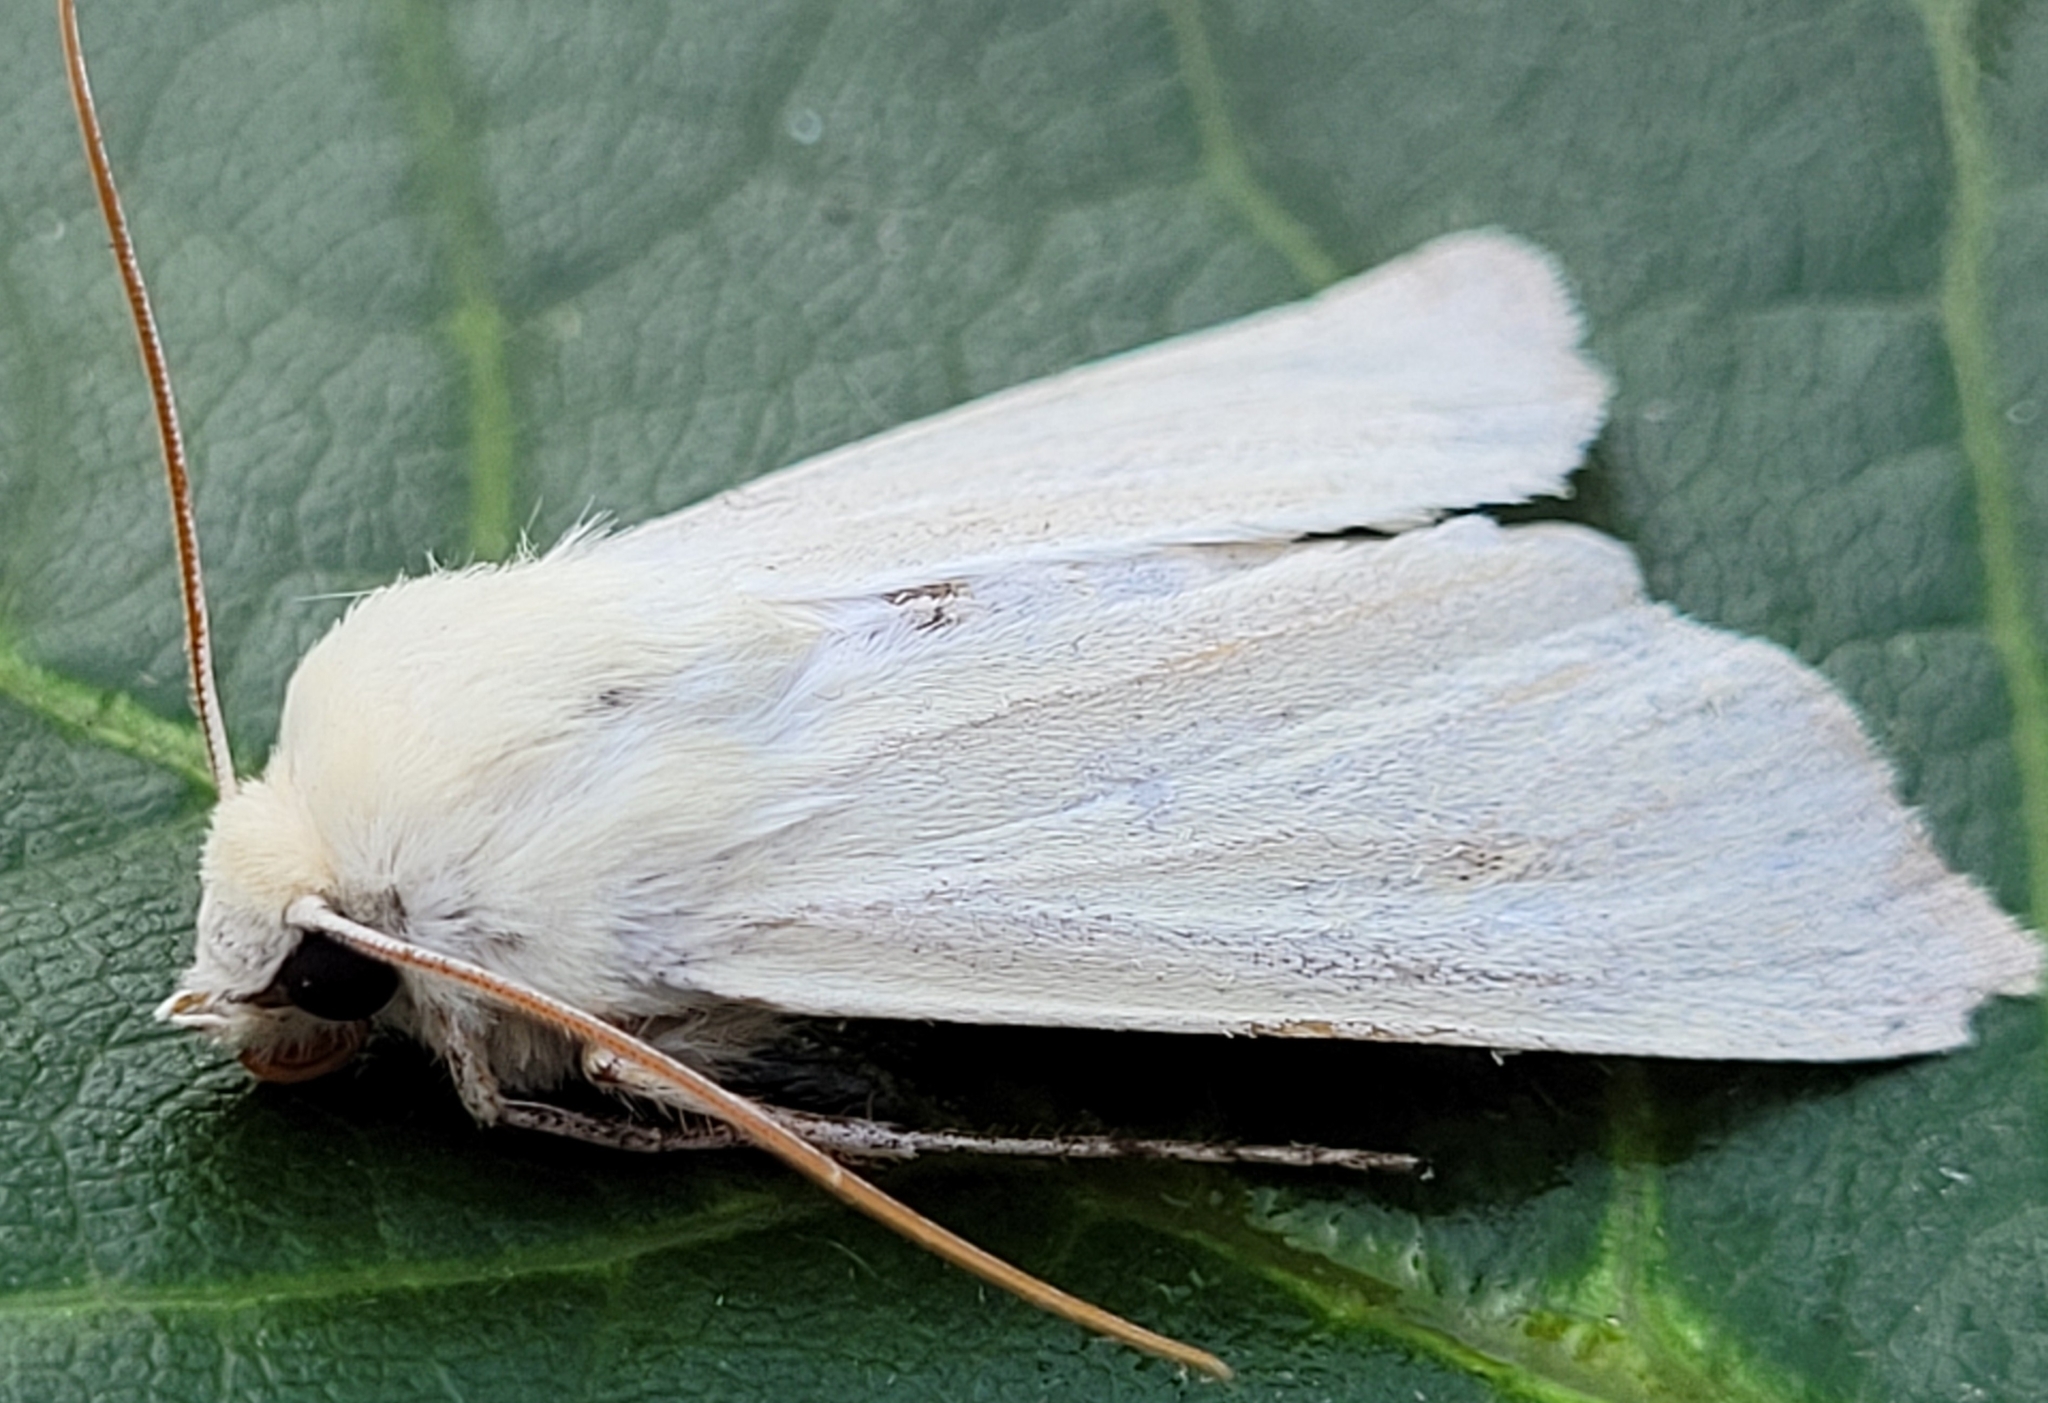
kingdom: Animalia
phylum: Arthropoda
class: Insecta
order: Lepidoptera
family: Noctuidae
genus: Copablepharon
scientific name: Copablepharon viridisparsa
